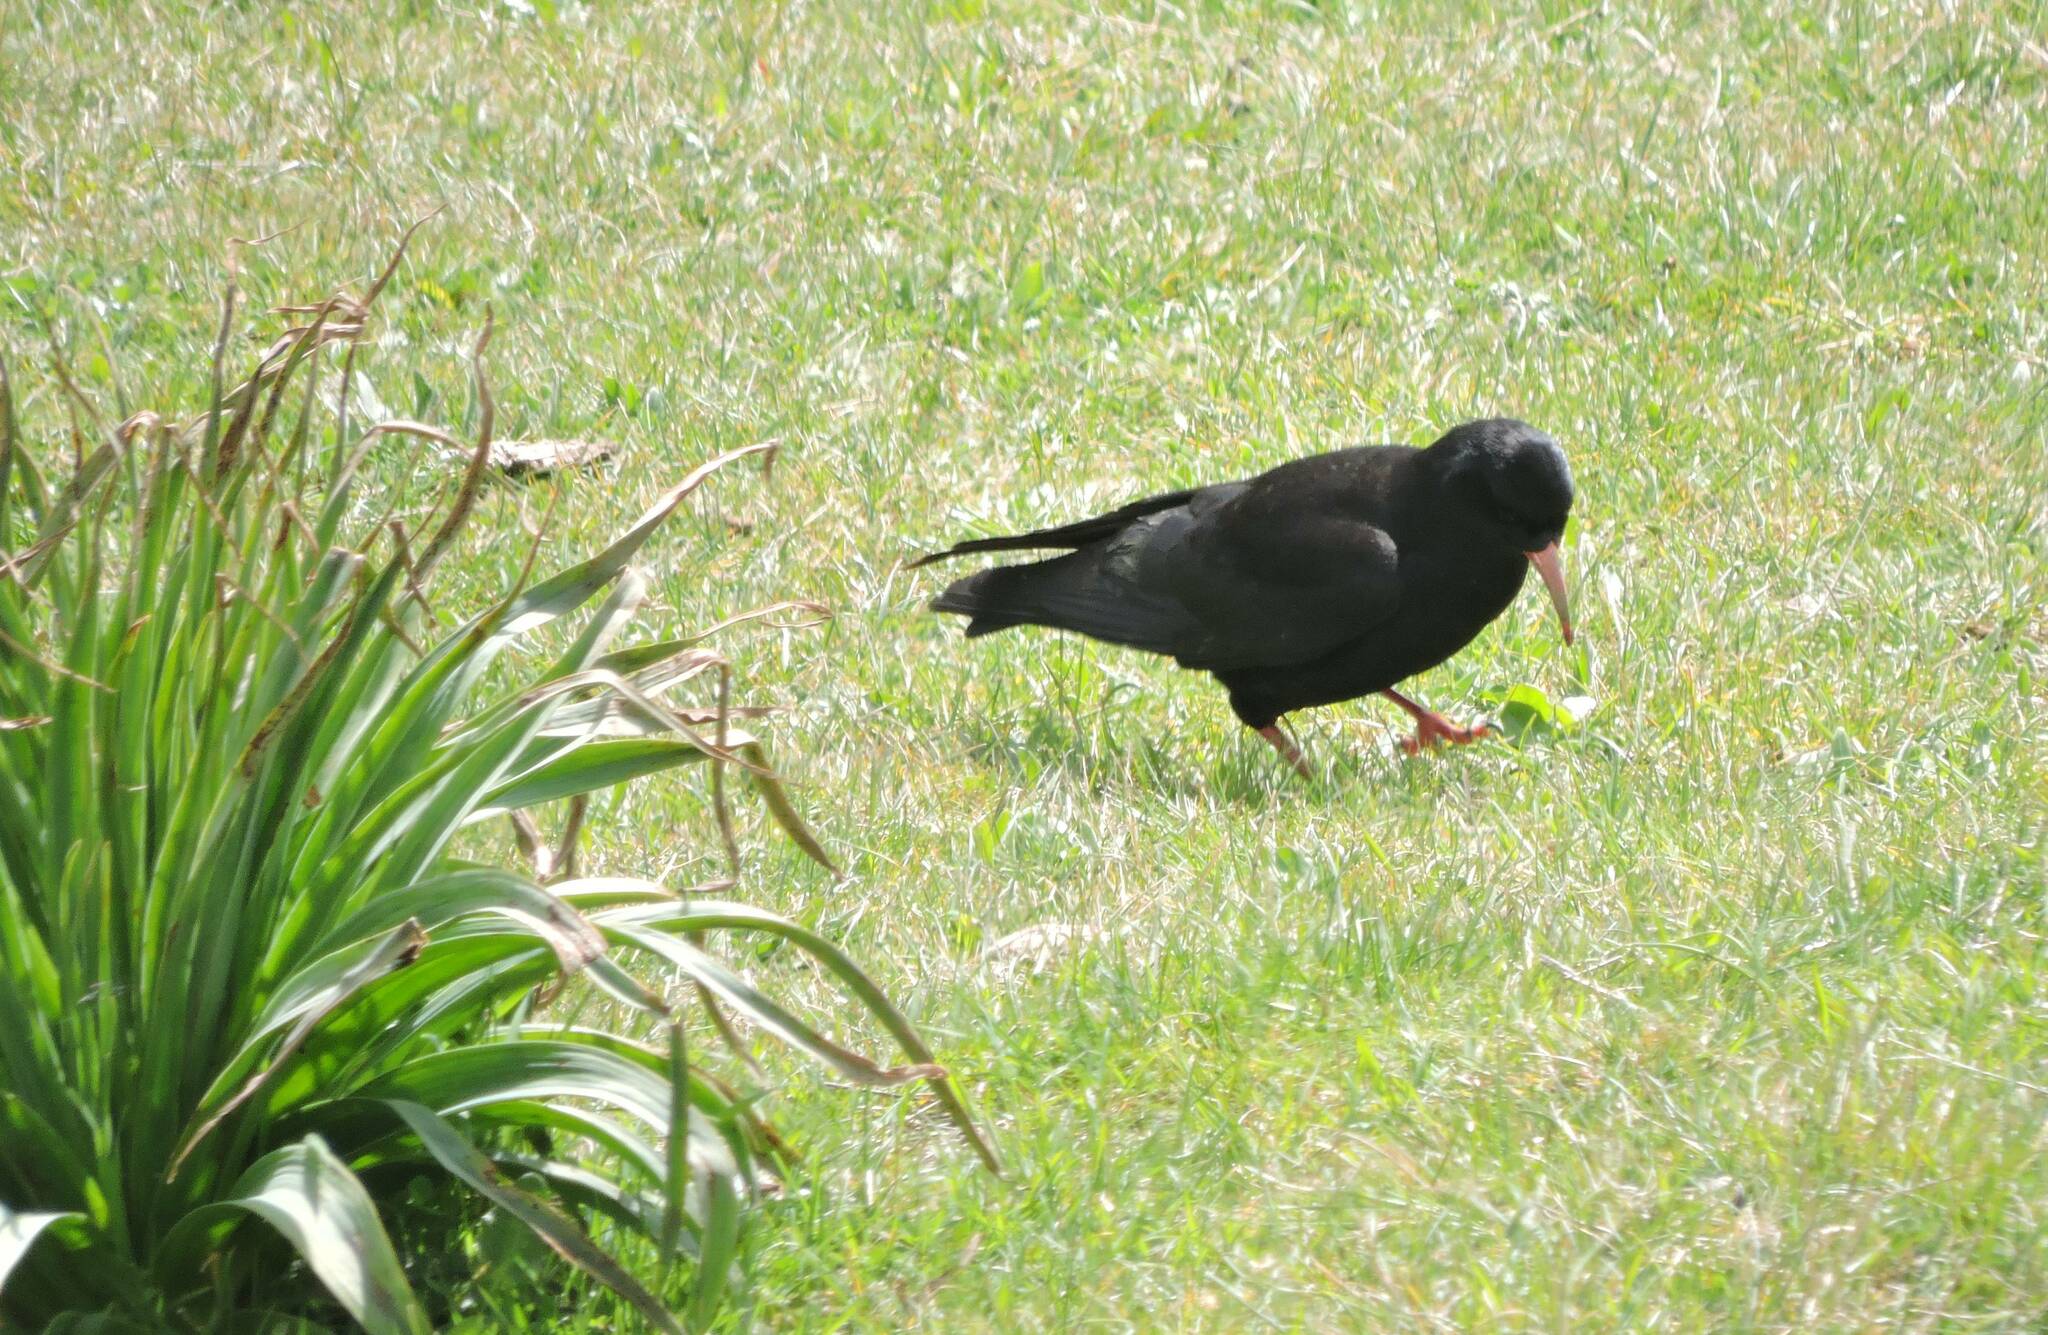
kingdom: Animalia
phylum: Chordata
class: Aves
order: Passeriformes
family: Corvidae
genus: Pyrrhocorax
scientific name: Pyrrhocorax pyrrhocorax
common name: Red-billed chough
